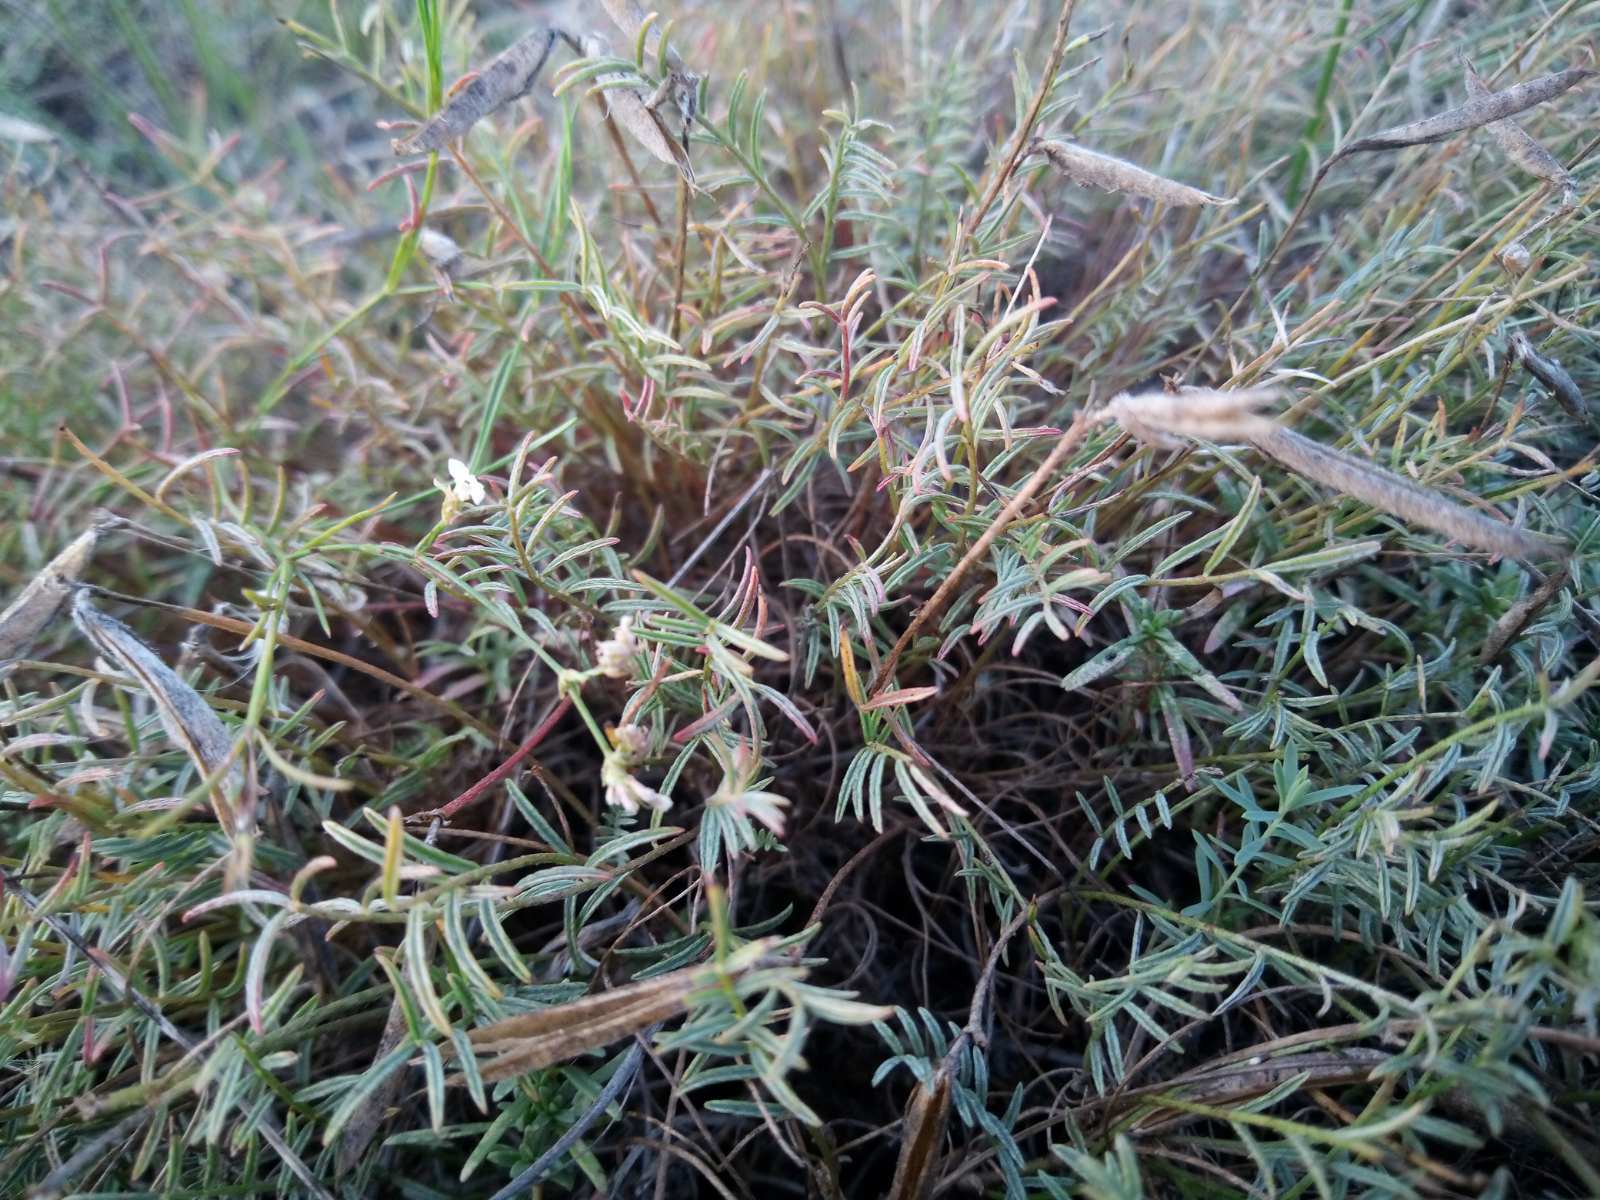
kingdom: Plantae
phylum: Tracheophyta
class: Magnoliopsida
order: Fabales
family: Fabaceae
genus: Astragalus
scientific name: Astragalus corniculatus
